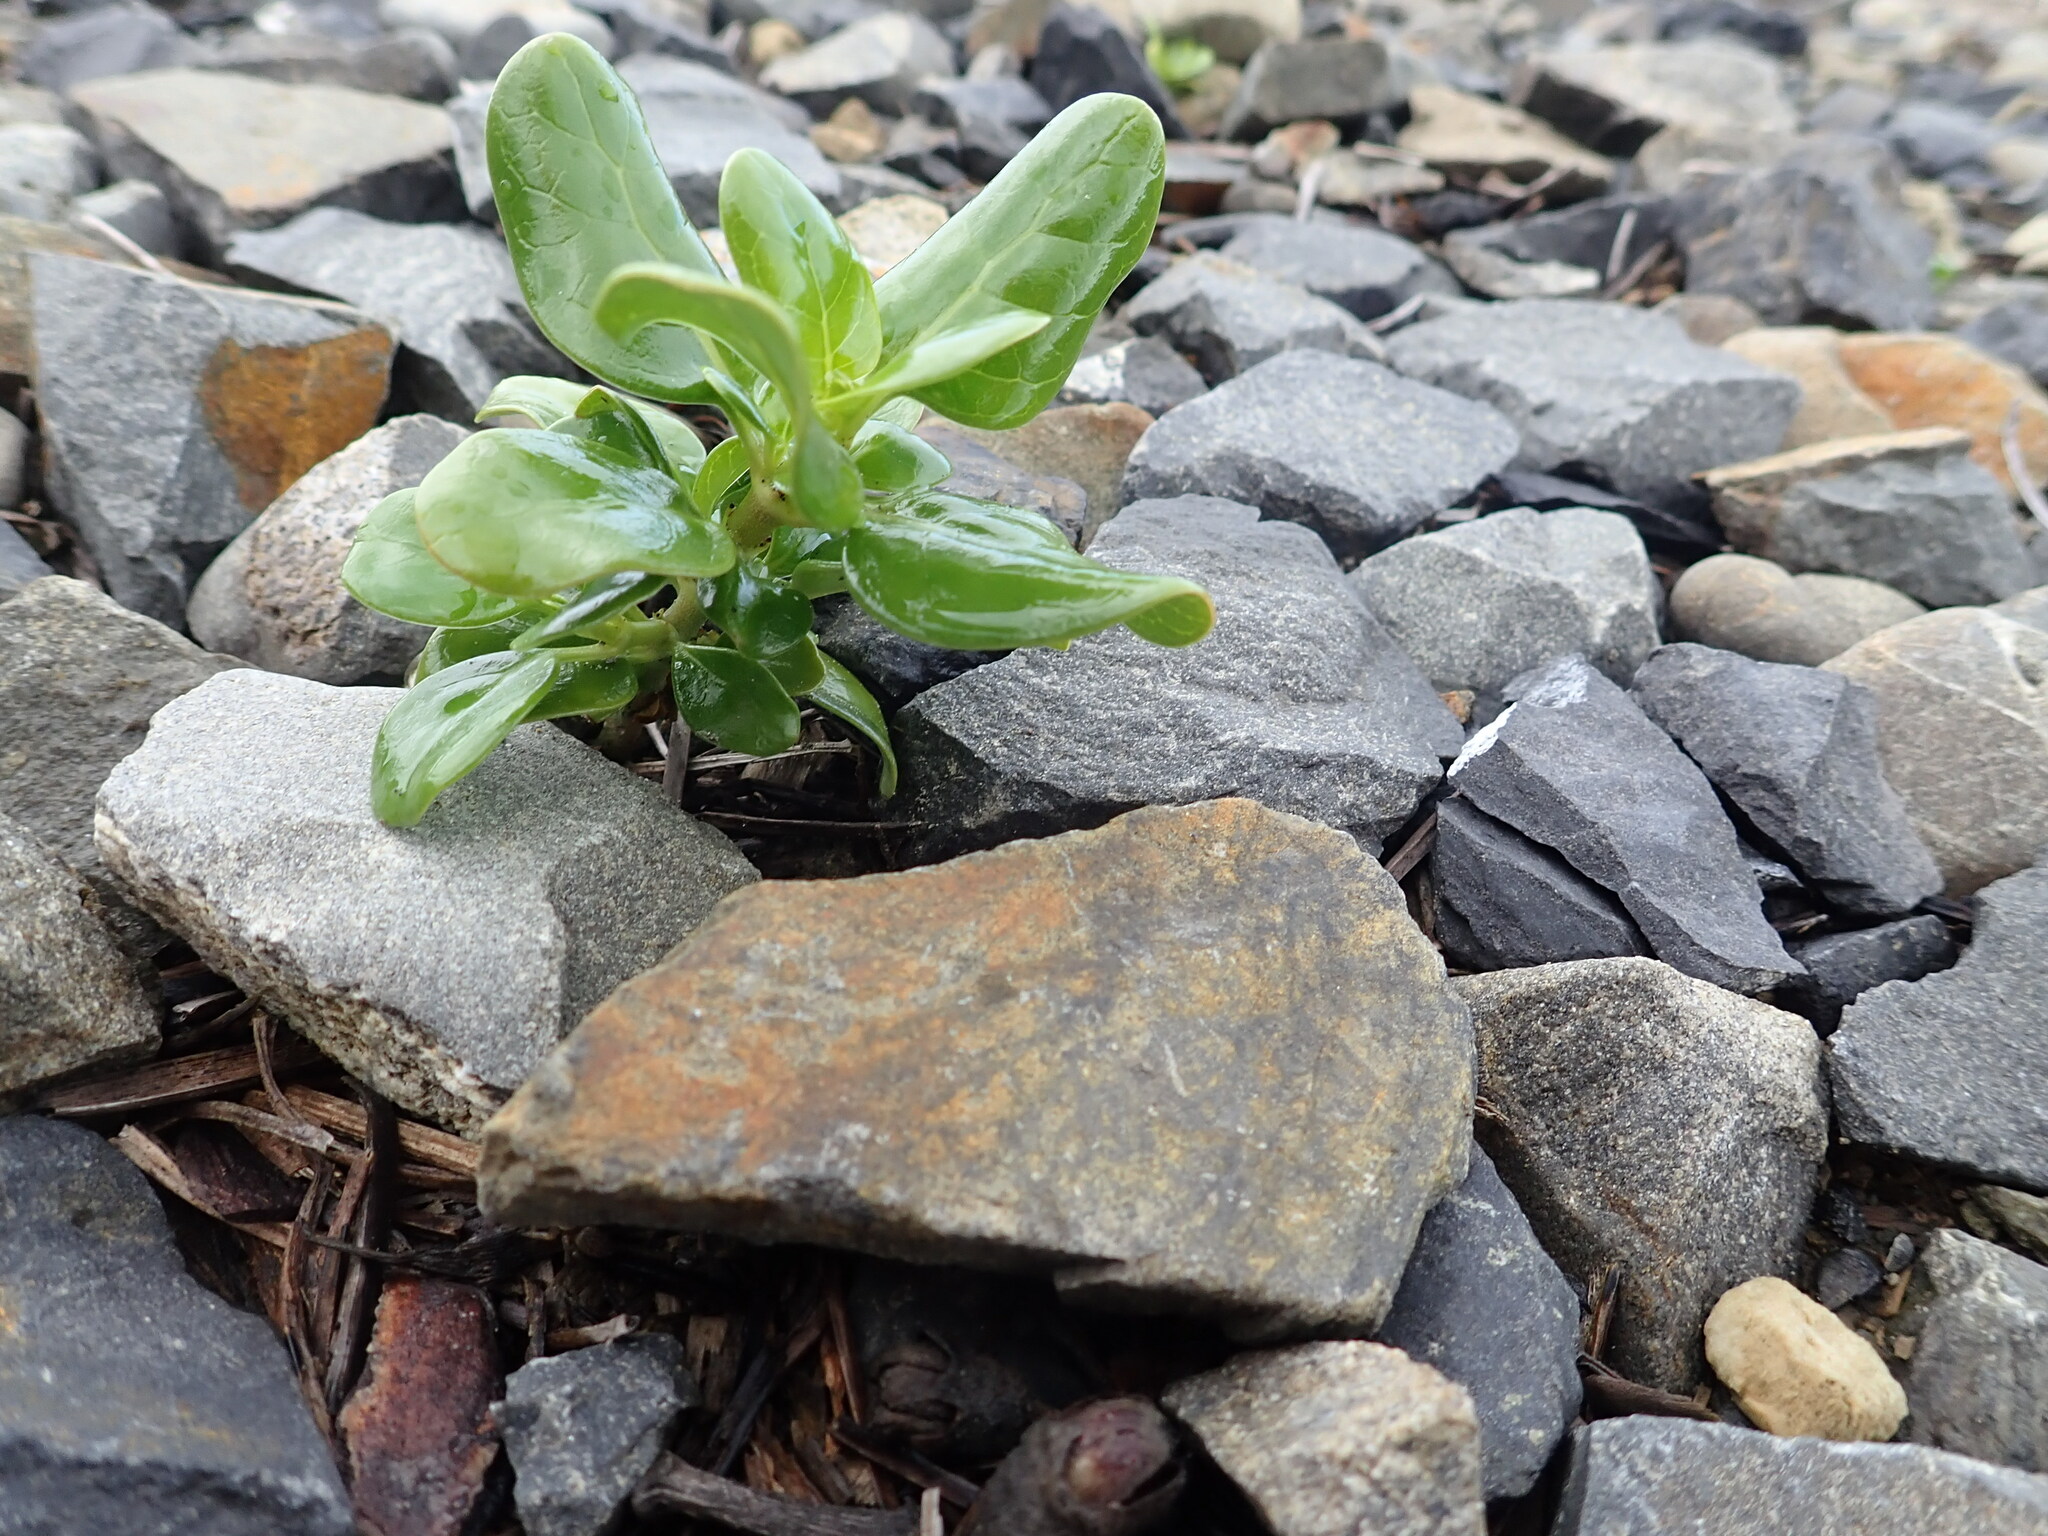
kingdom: Plantae
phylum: Tracheophyta
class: Magnoliopsida
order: Gentianales
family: Rubiaceae
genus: Coprosma
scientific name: Coprosma repens
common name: Tree bedstraw
